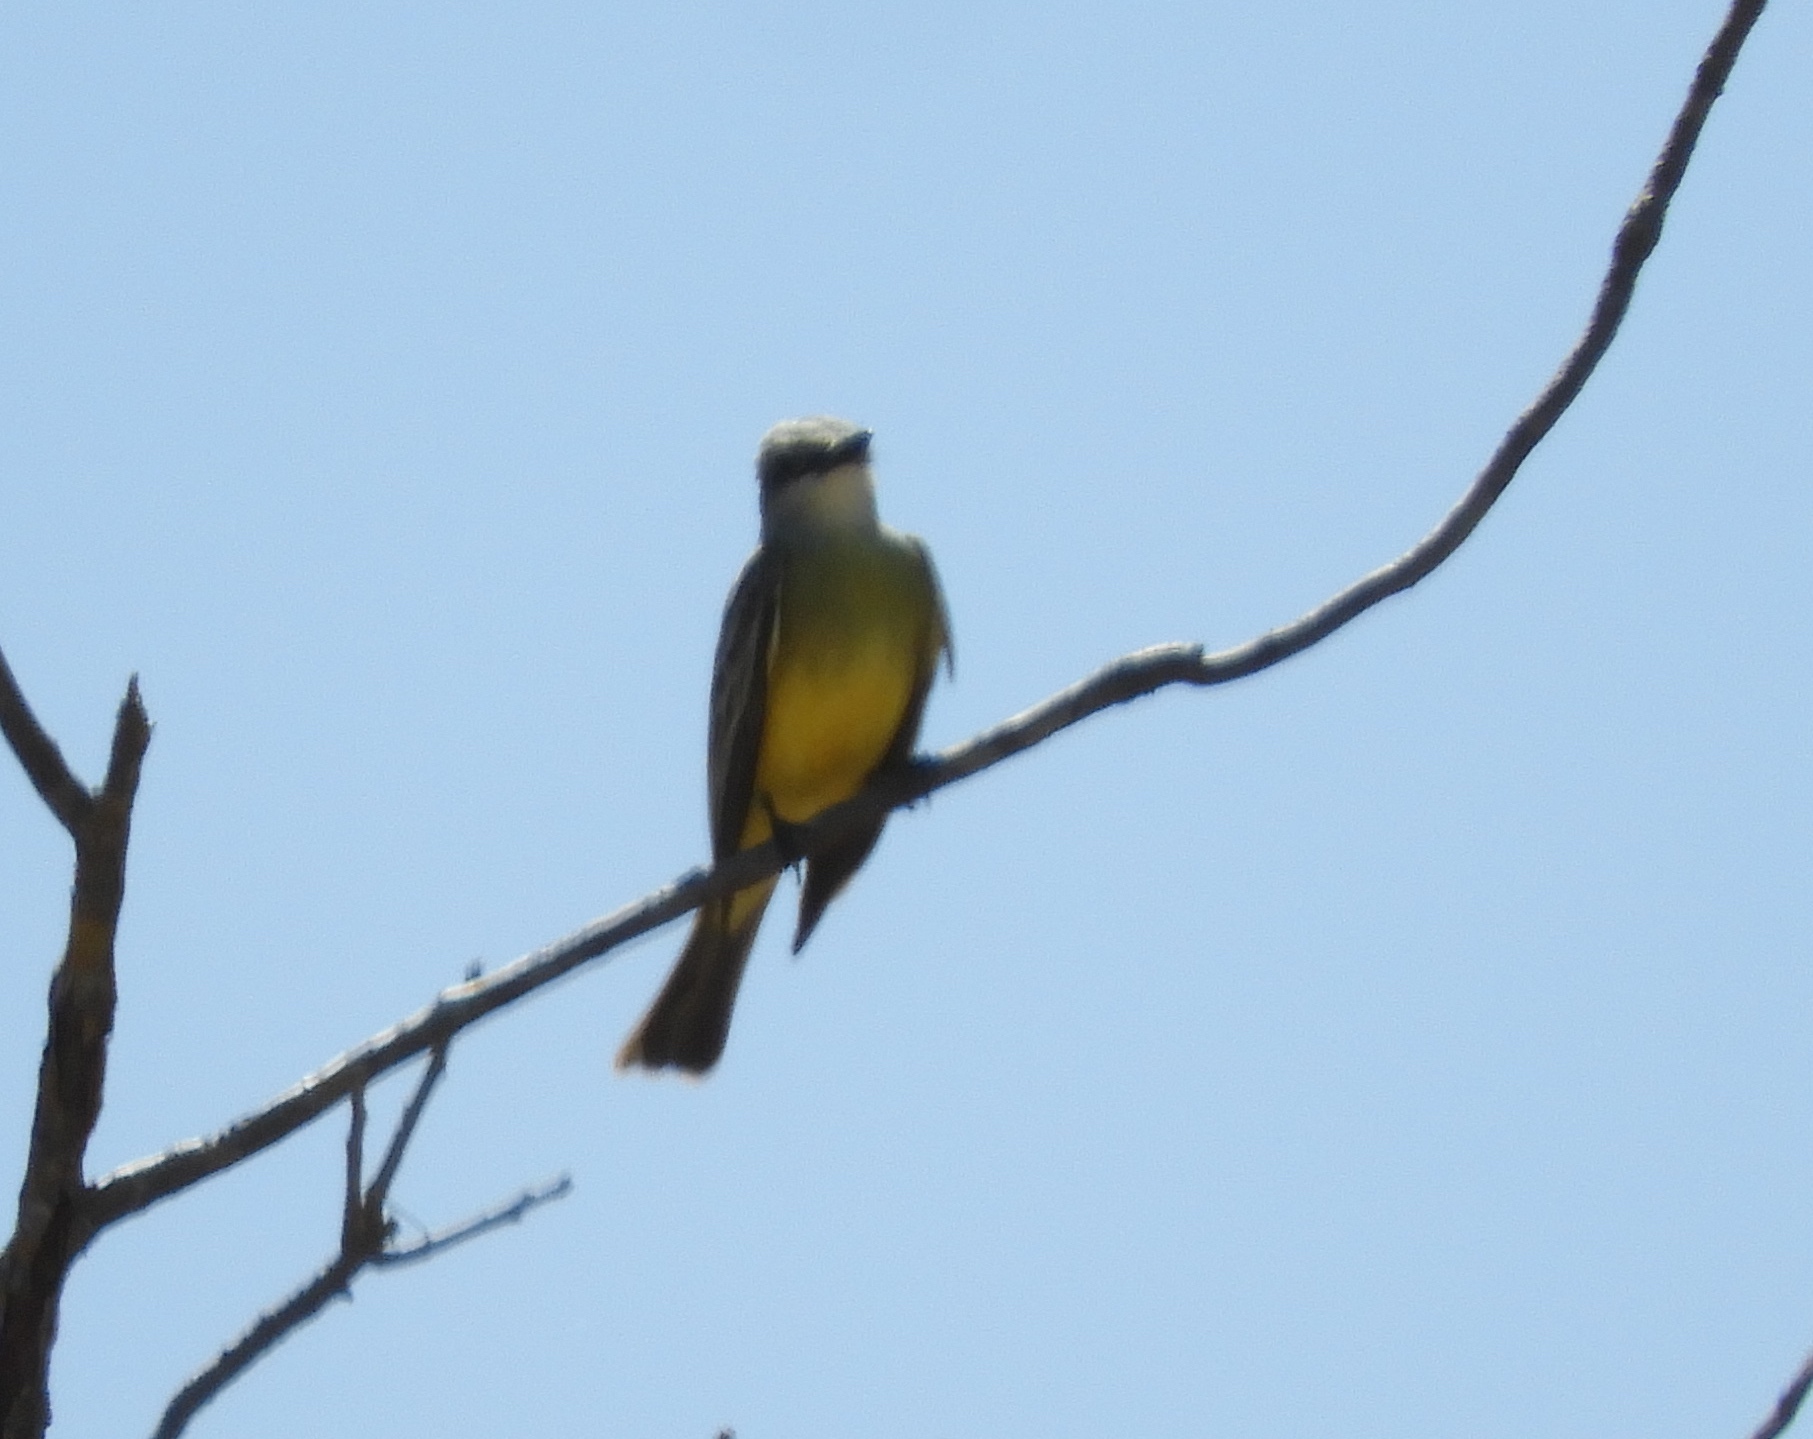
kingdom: Animalia
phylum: Chordata
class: Aves
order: Passeriformes
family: Tyrannidae
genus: Tyrannus
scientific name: Tyrannus melancholicus
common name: Tropical kingbird
